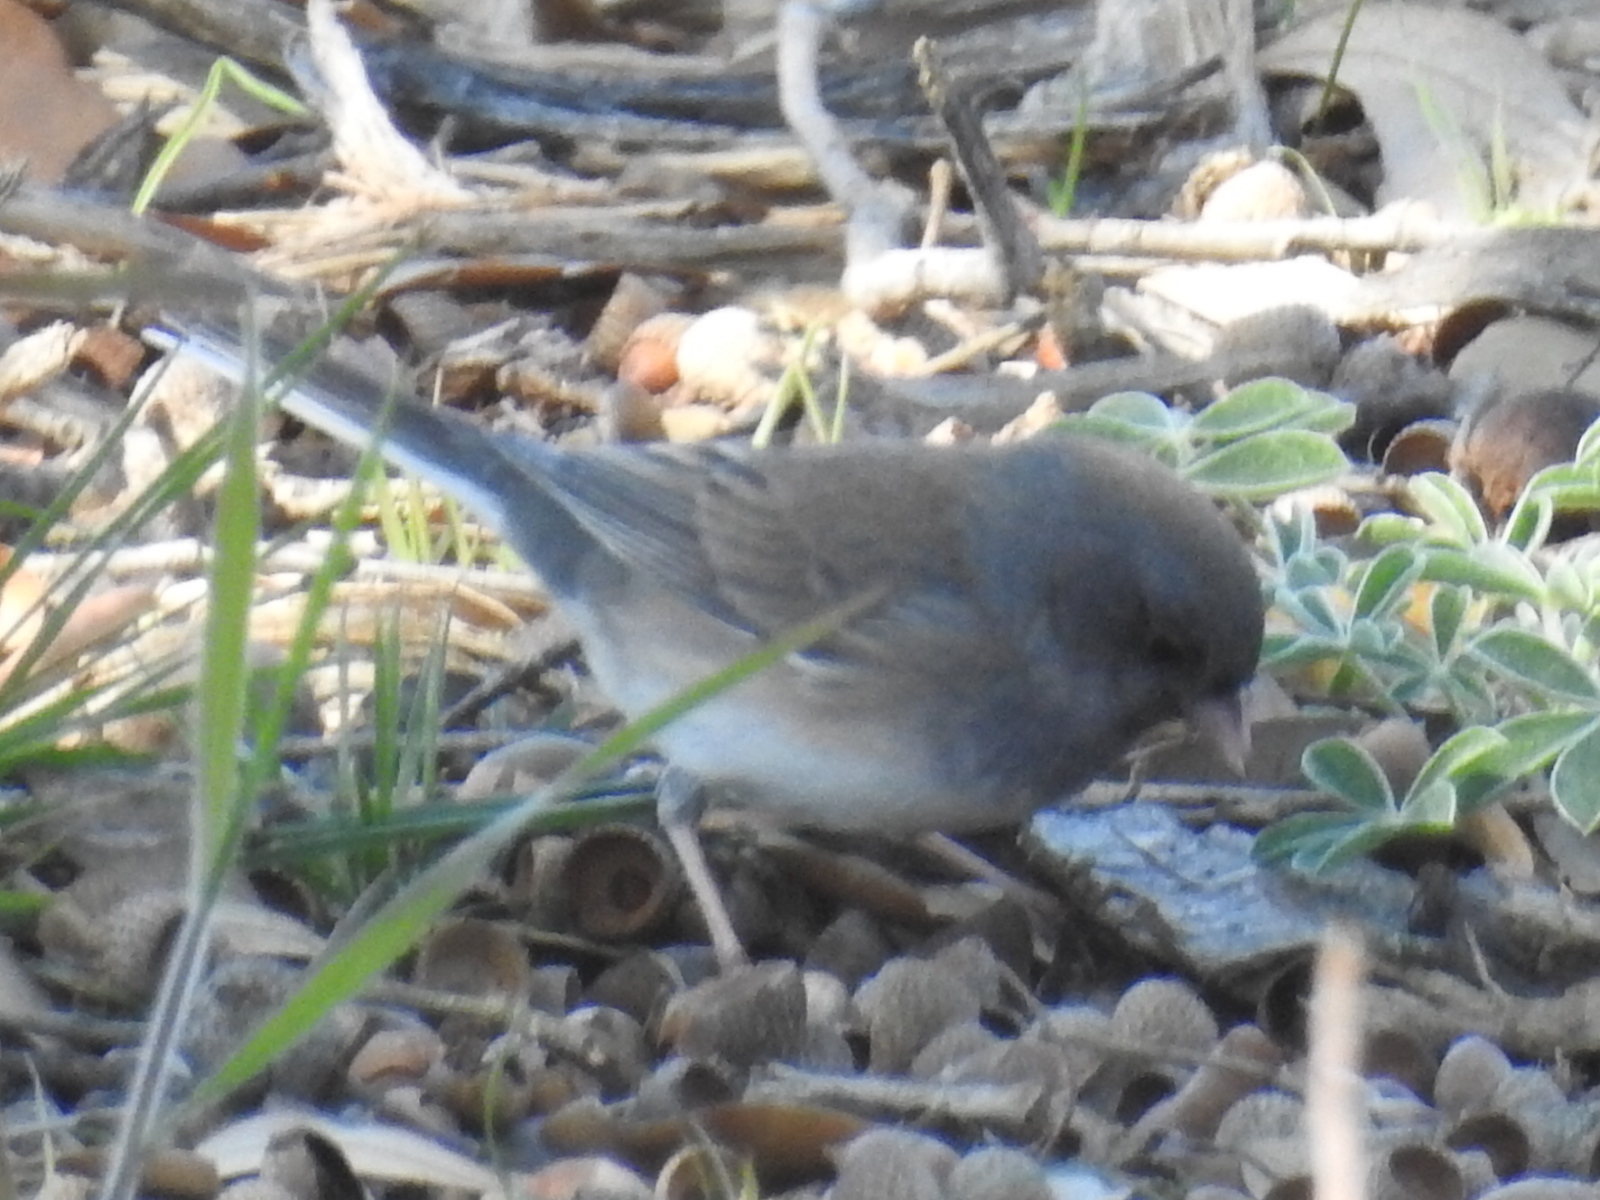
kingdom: Animalia
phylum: Chordata
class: Aves
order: Passeriformes
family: Passerellidae
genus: Junco
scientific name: Junco hyemalis
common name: Dark-eyed junco
